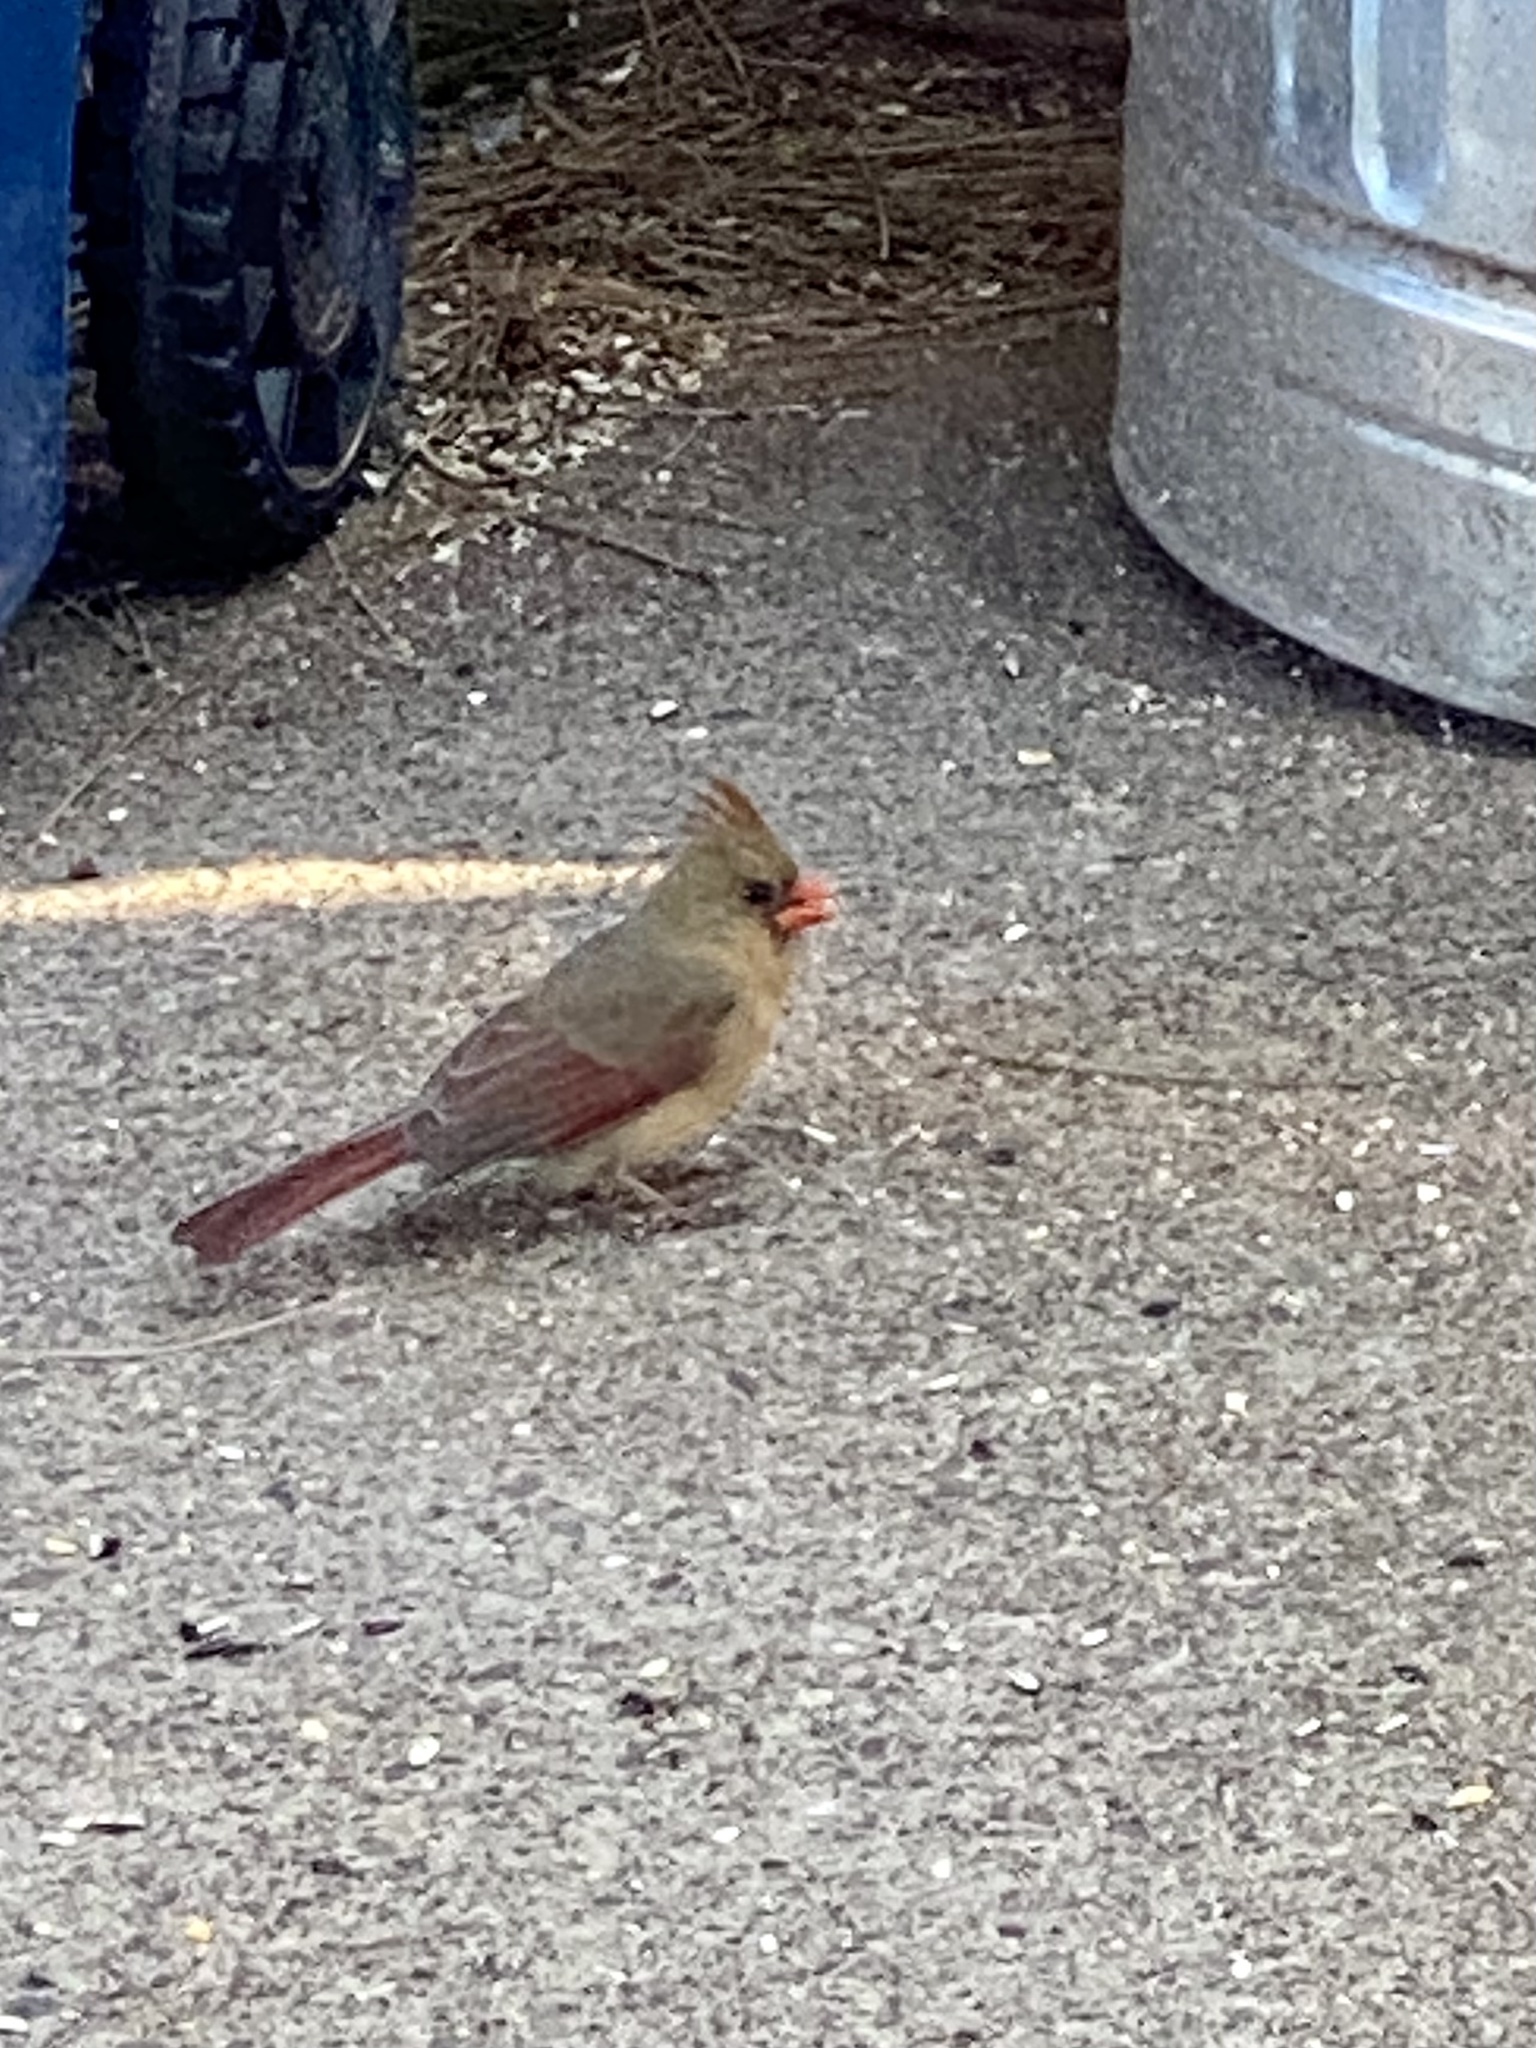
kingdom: Animalia
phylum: Chordata
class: Aves
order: Passeriformes
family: Cardinalidae
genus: Cardinalis
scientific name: Cardinalis cardinalis
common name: Northern cardinal
